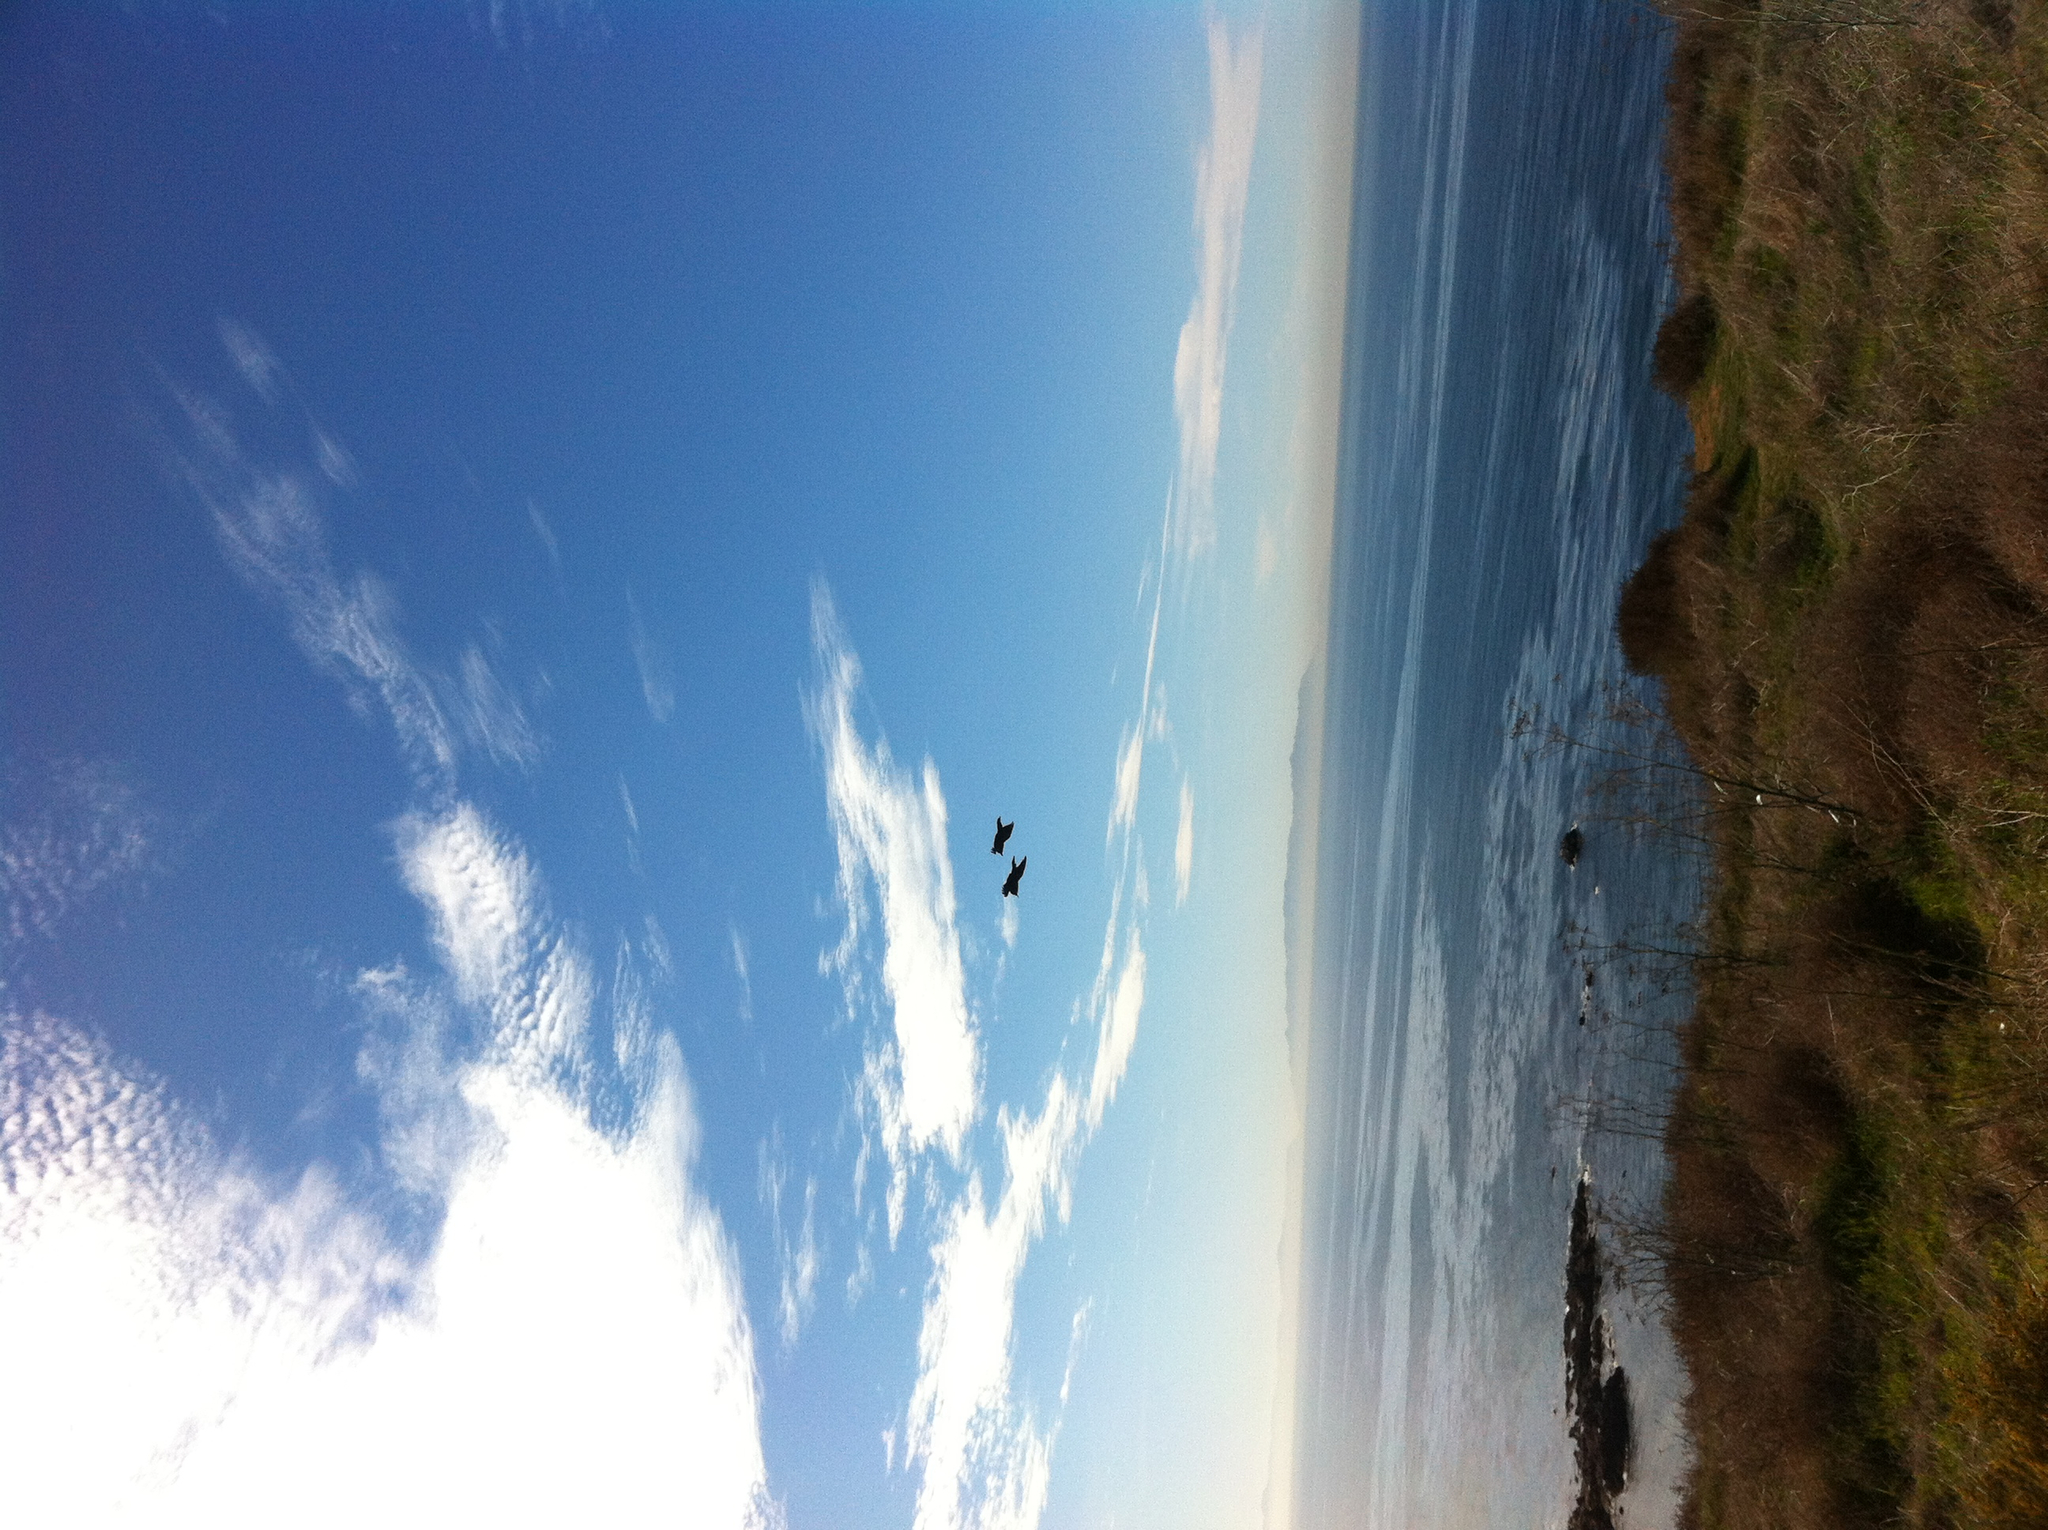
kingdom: Animalia
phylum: Chordata
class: Aves
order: Passeriformes
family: Corvidae
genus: Corvus
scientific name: Corvus corax
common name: Common raven
